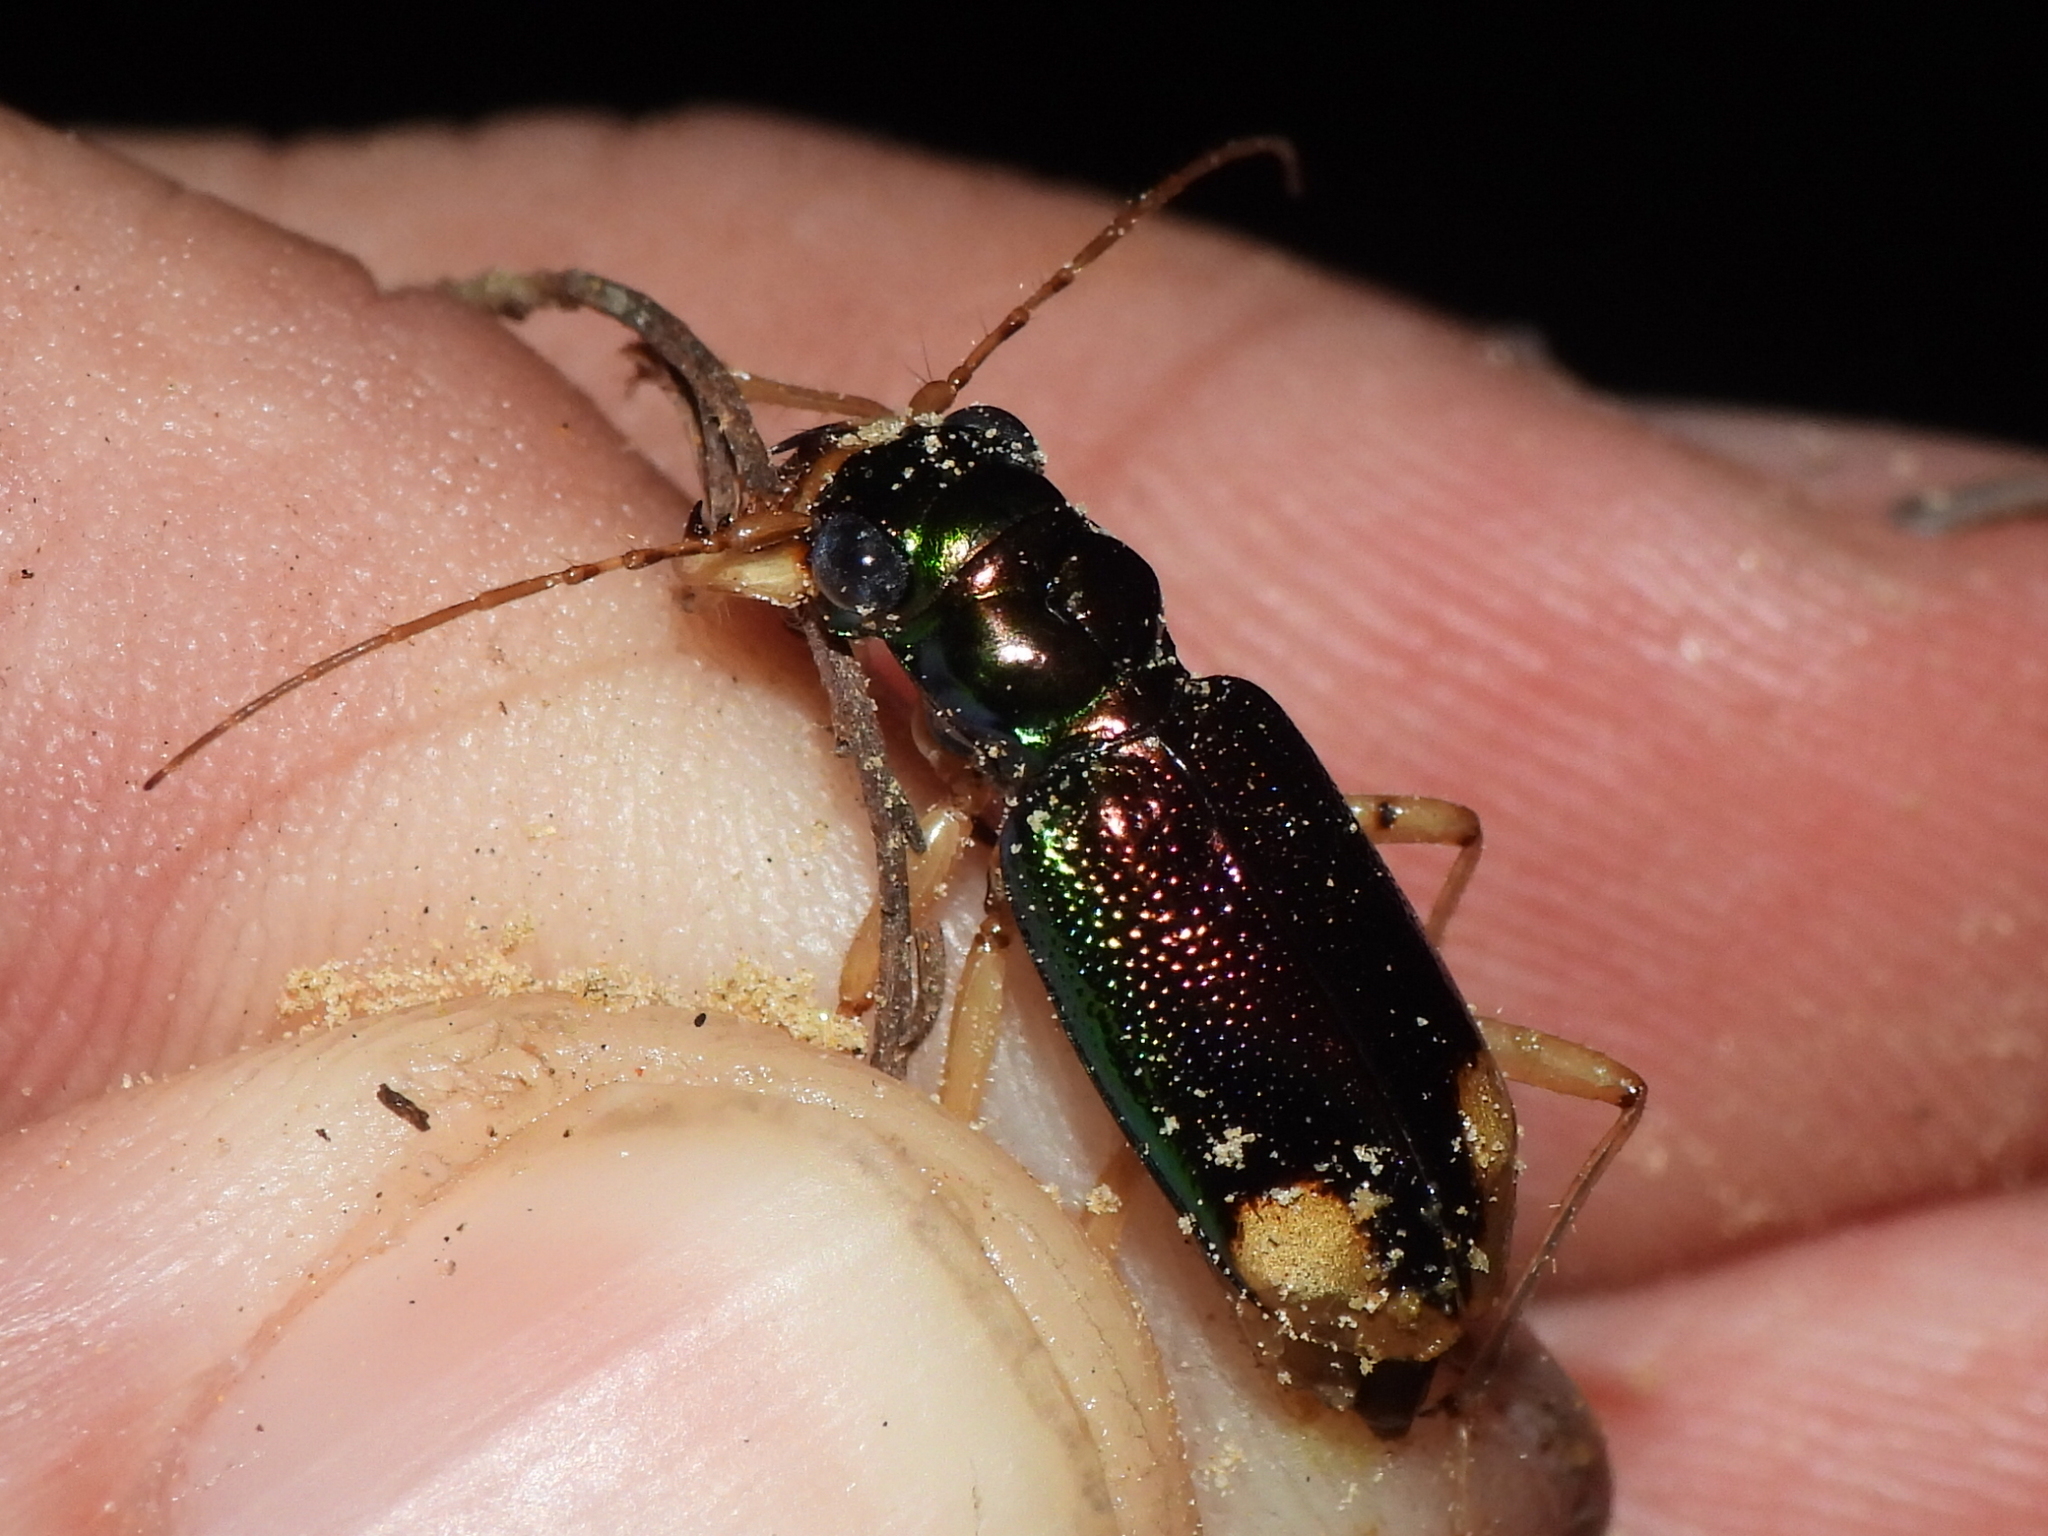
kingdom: Animalia
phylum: Arthropoda
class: Insecta
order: Coleoptera
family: Carabidae
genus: Tetracha
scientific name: Tetracha carolina
